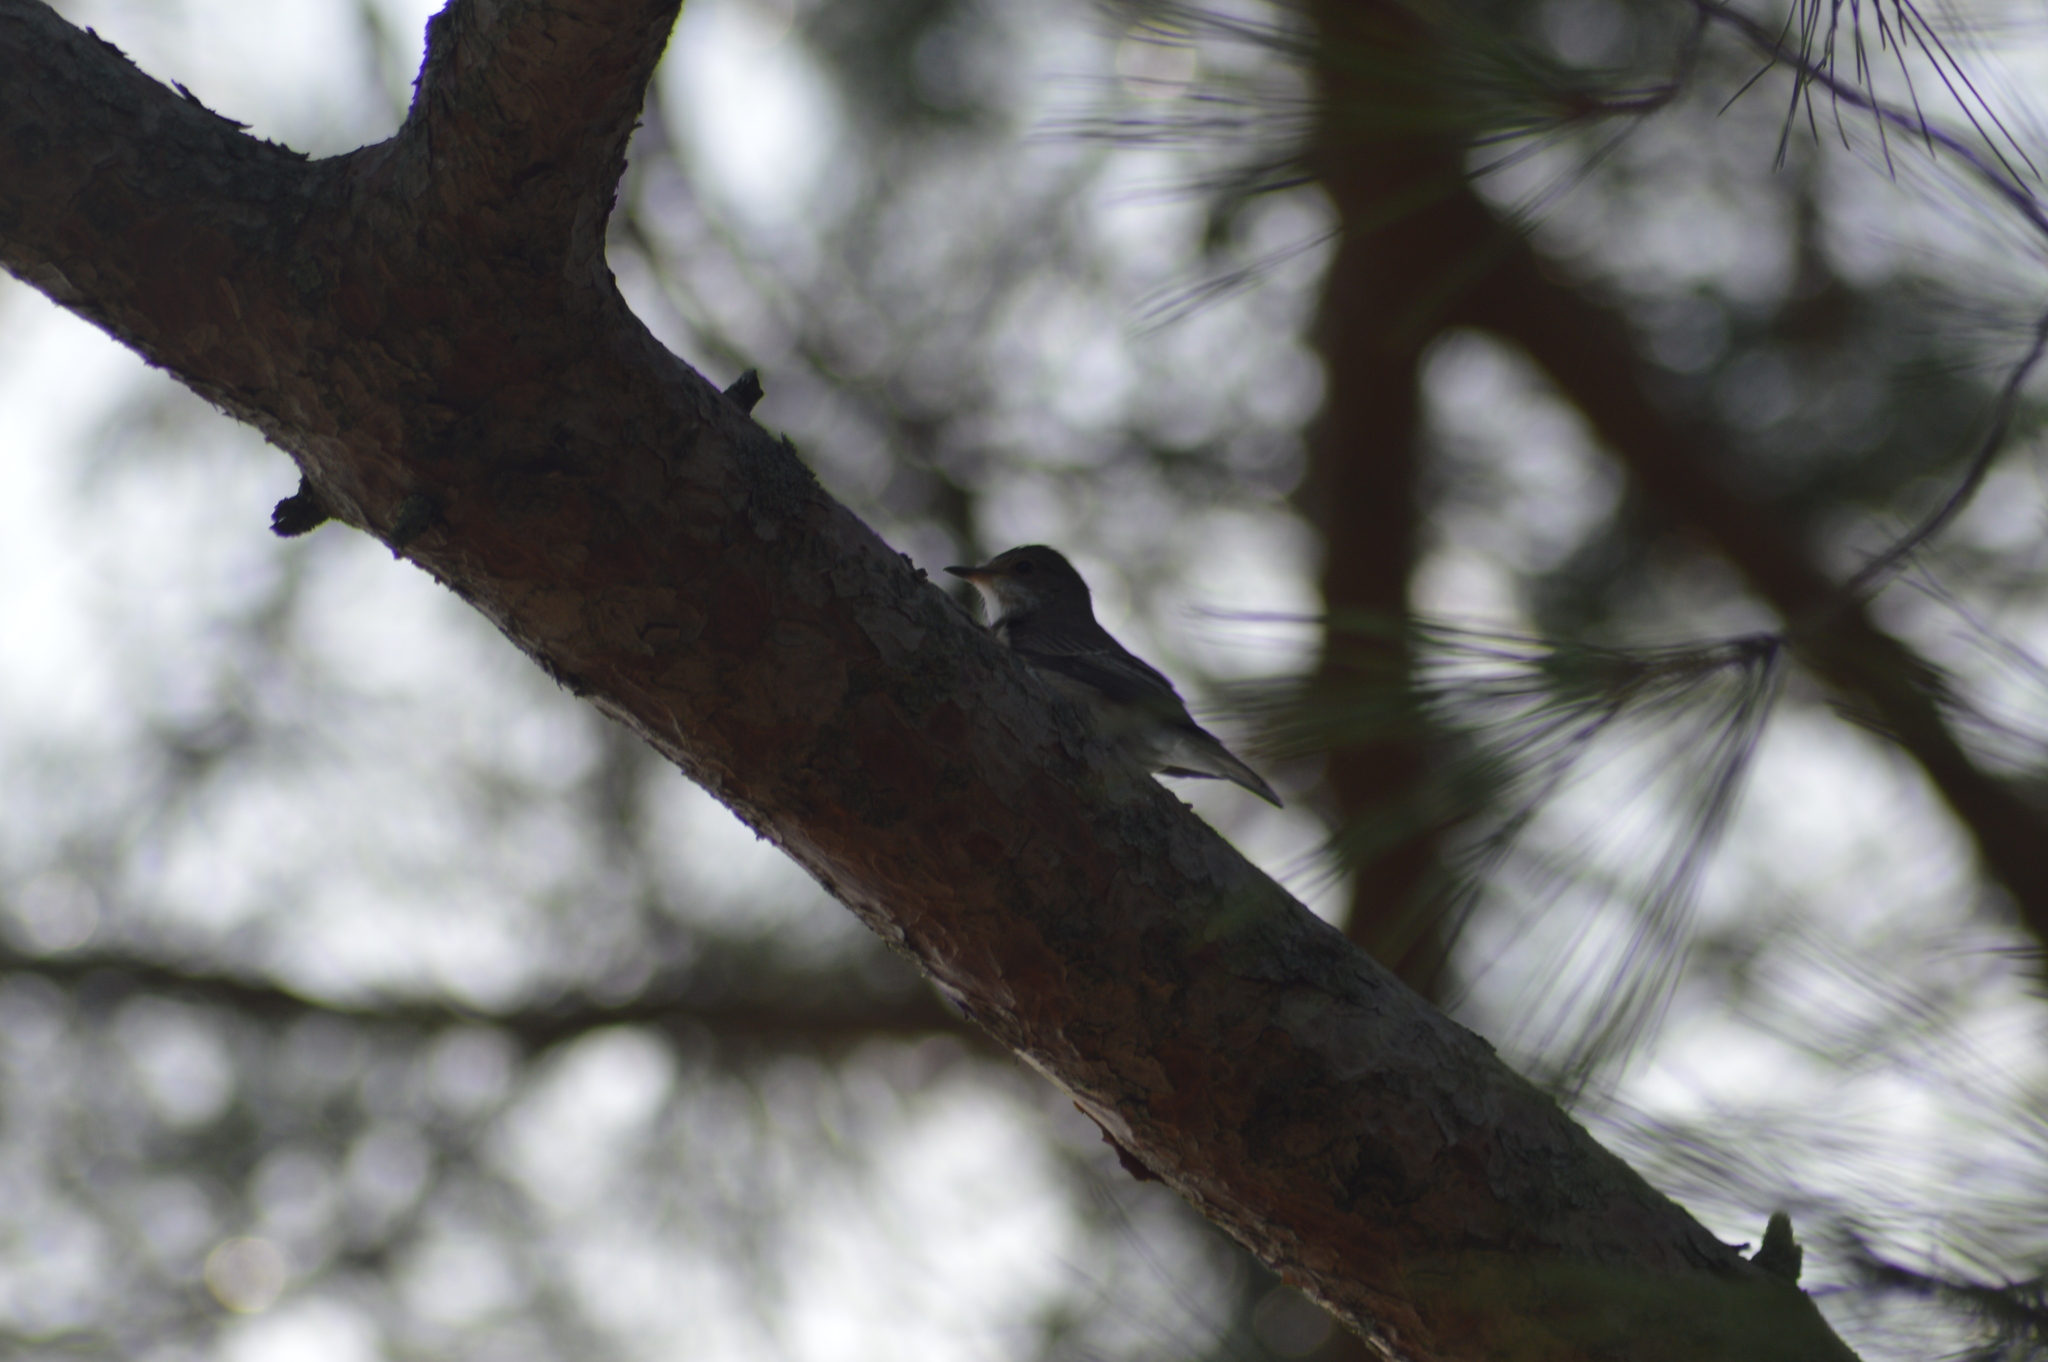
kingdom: Animalia
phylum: Chordata
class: Aves
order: Passeriformes
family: Muscicapidae
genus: Muscicapa
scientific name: Muscicapa striata
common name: Spotted flycatcher
